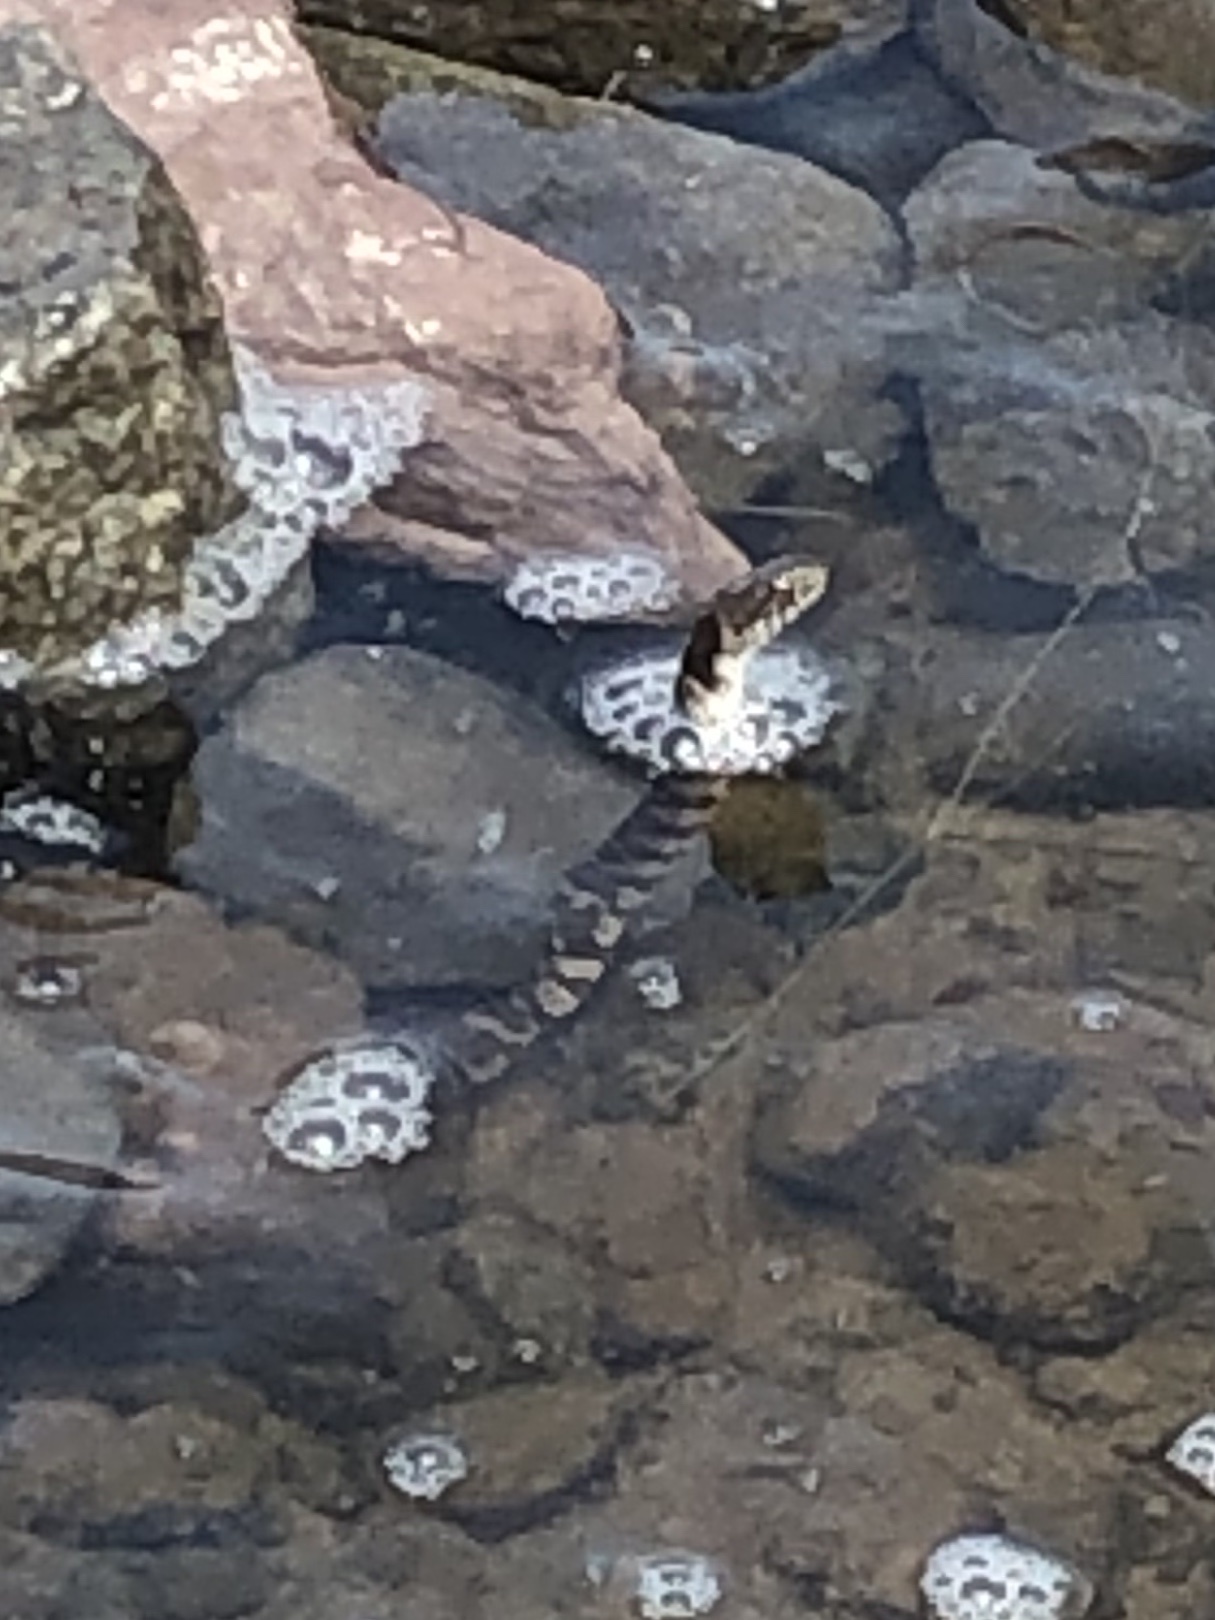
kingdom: Animalia
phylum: Chordata
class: Squamata
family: Colubridae
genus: Nerodia
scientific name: Nerodia sipedon
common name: Northern water snake
